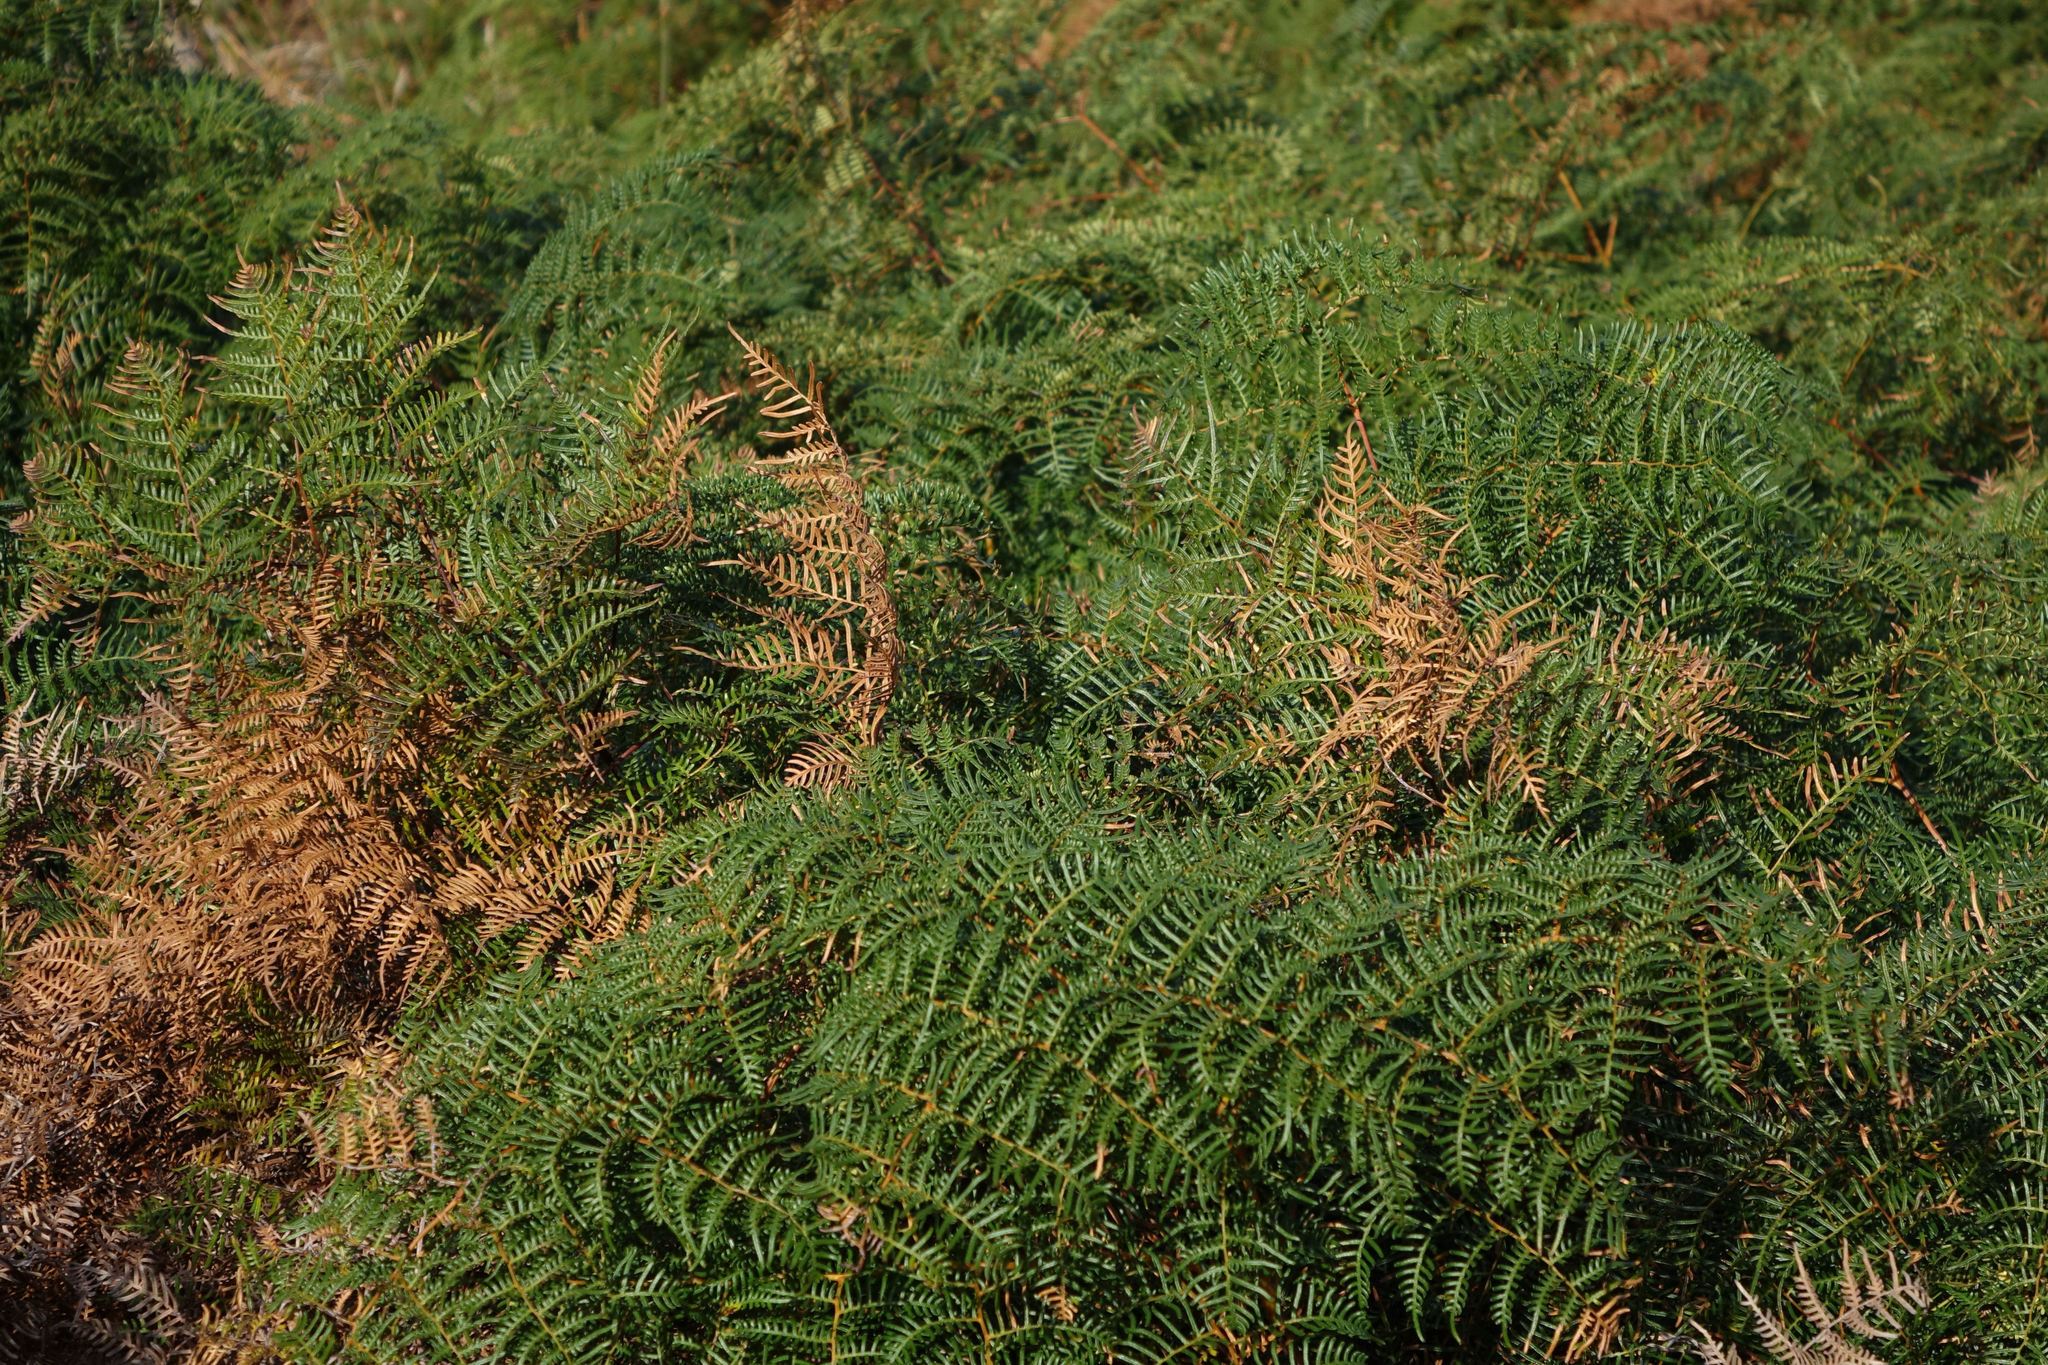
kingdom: Plantae
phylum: Tracheophyta
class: Polypodiopsida
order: Polypodiales
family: Dennstaedtiaceae
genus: Pteridium
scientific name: Pteridium esculentum
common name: Bracken fern
